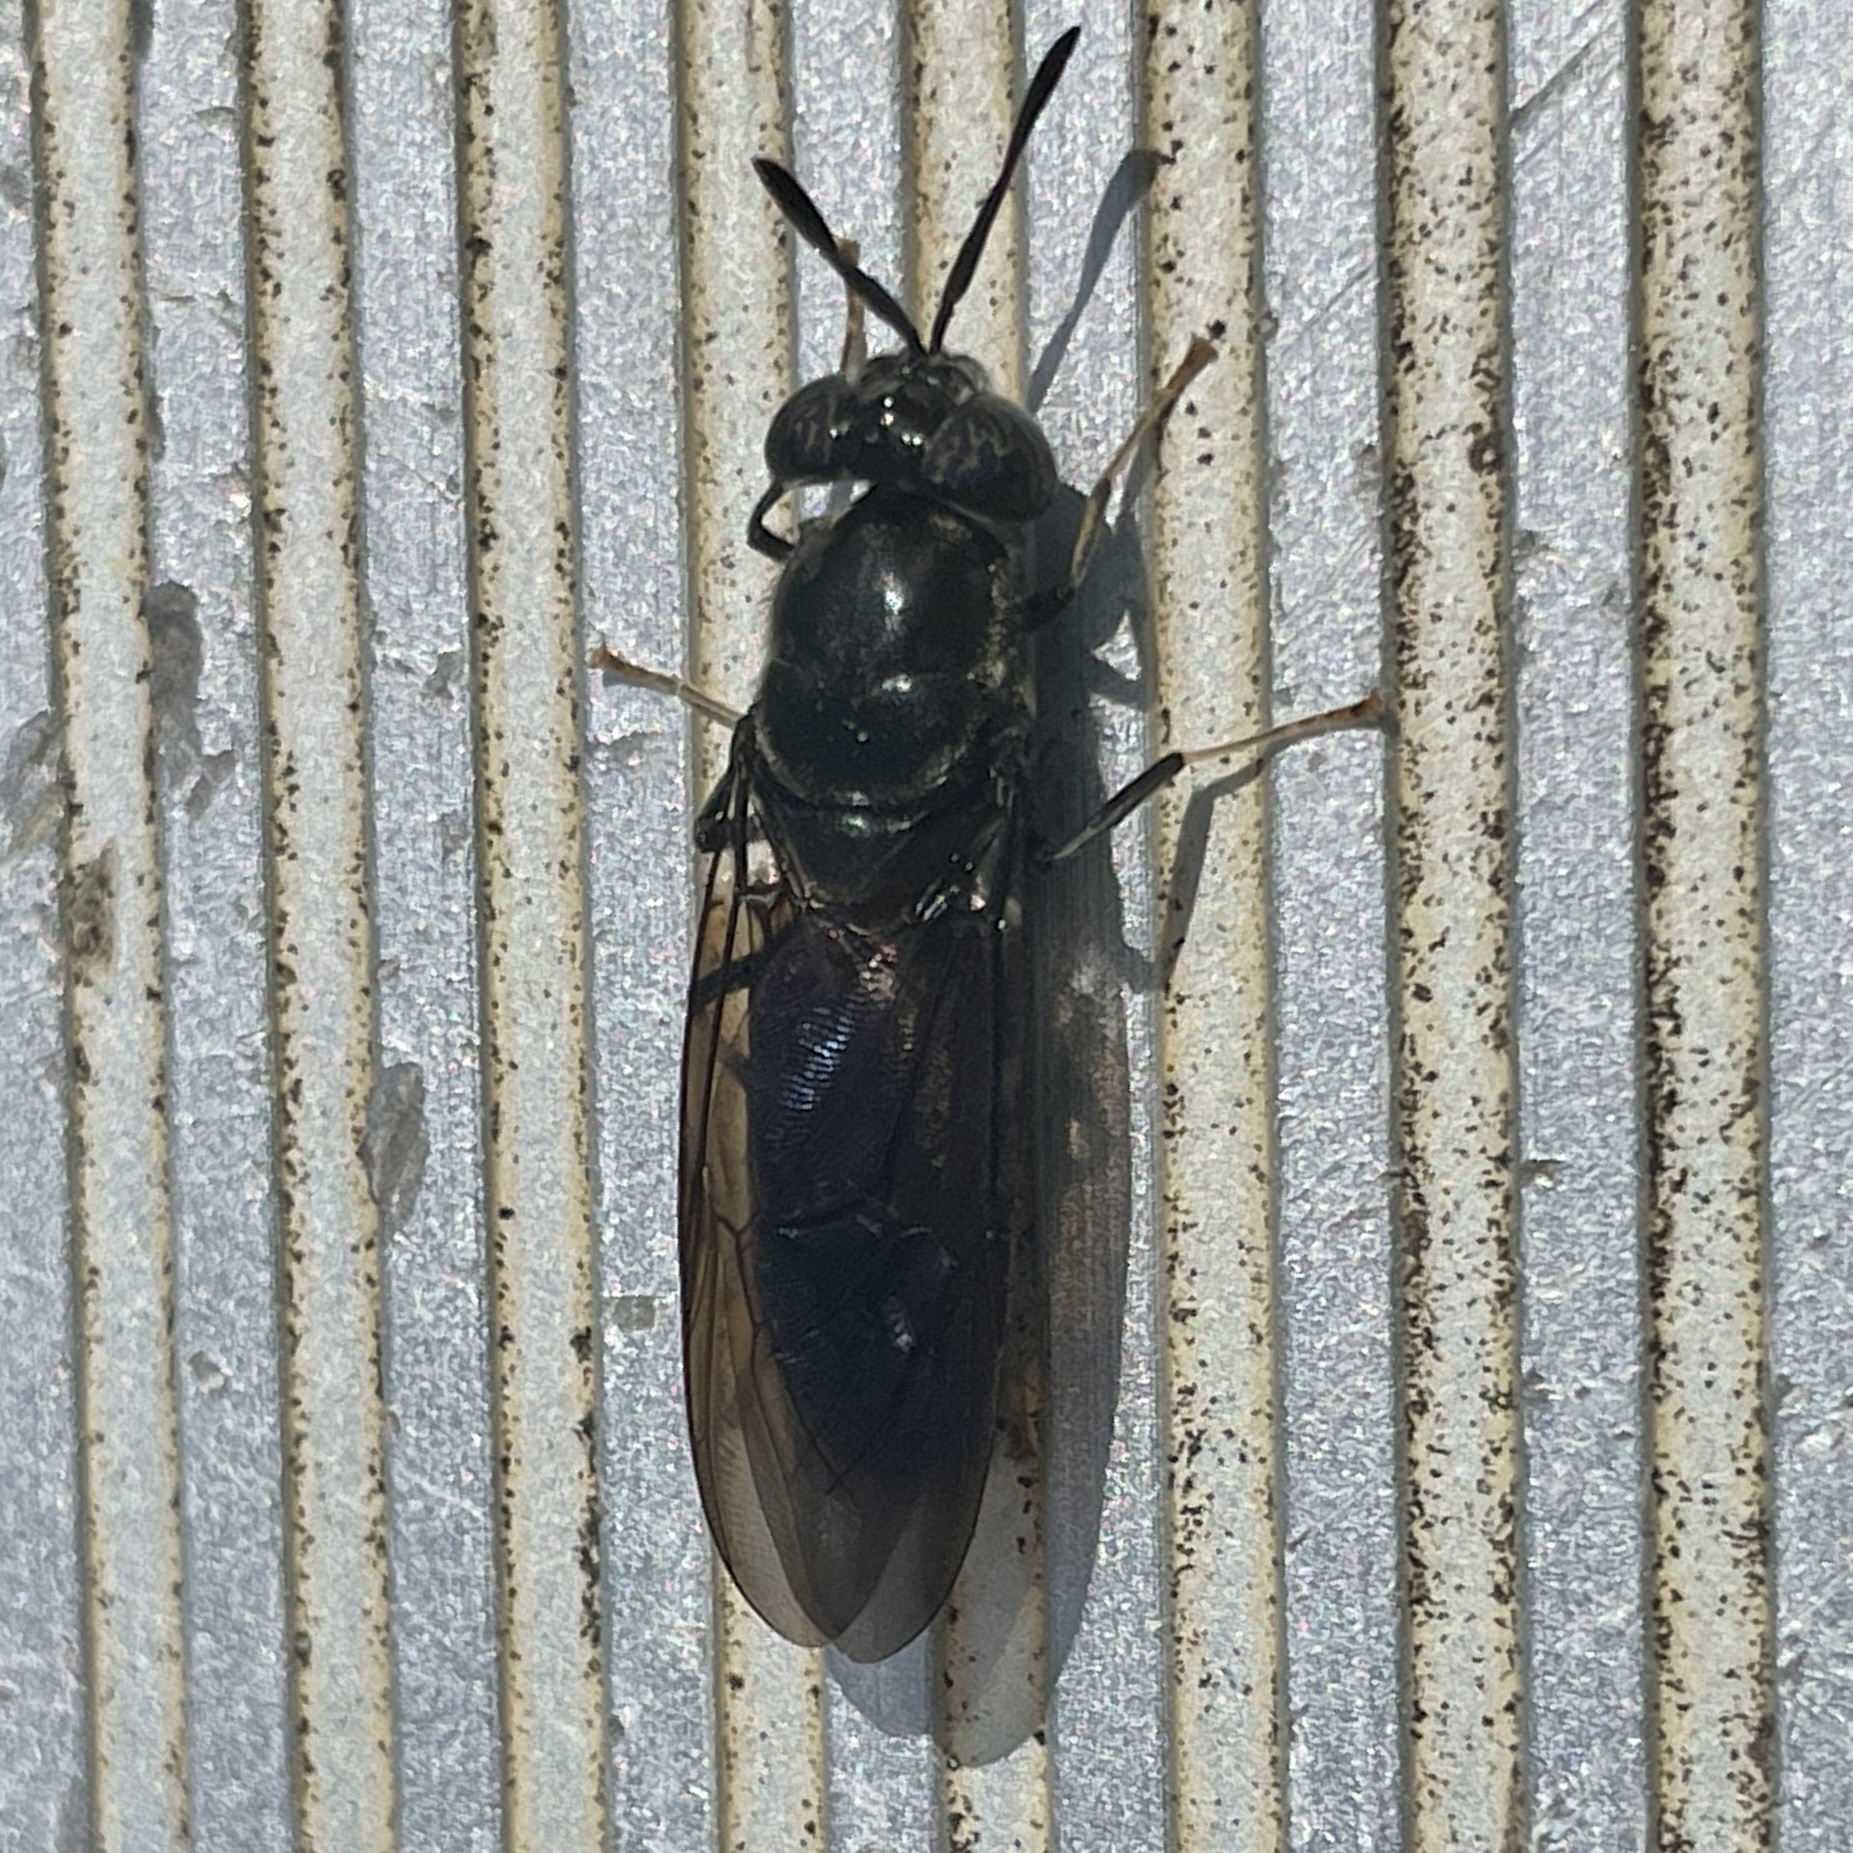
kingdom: Animalia
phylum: Arthropoda
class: Insecta
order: Diptera
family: Stratiomyidae
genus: Hermetia
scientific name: Hermetia illucens
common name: Black soldier fly
